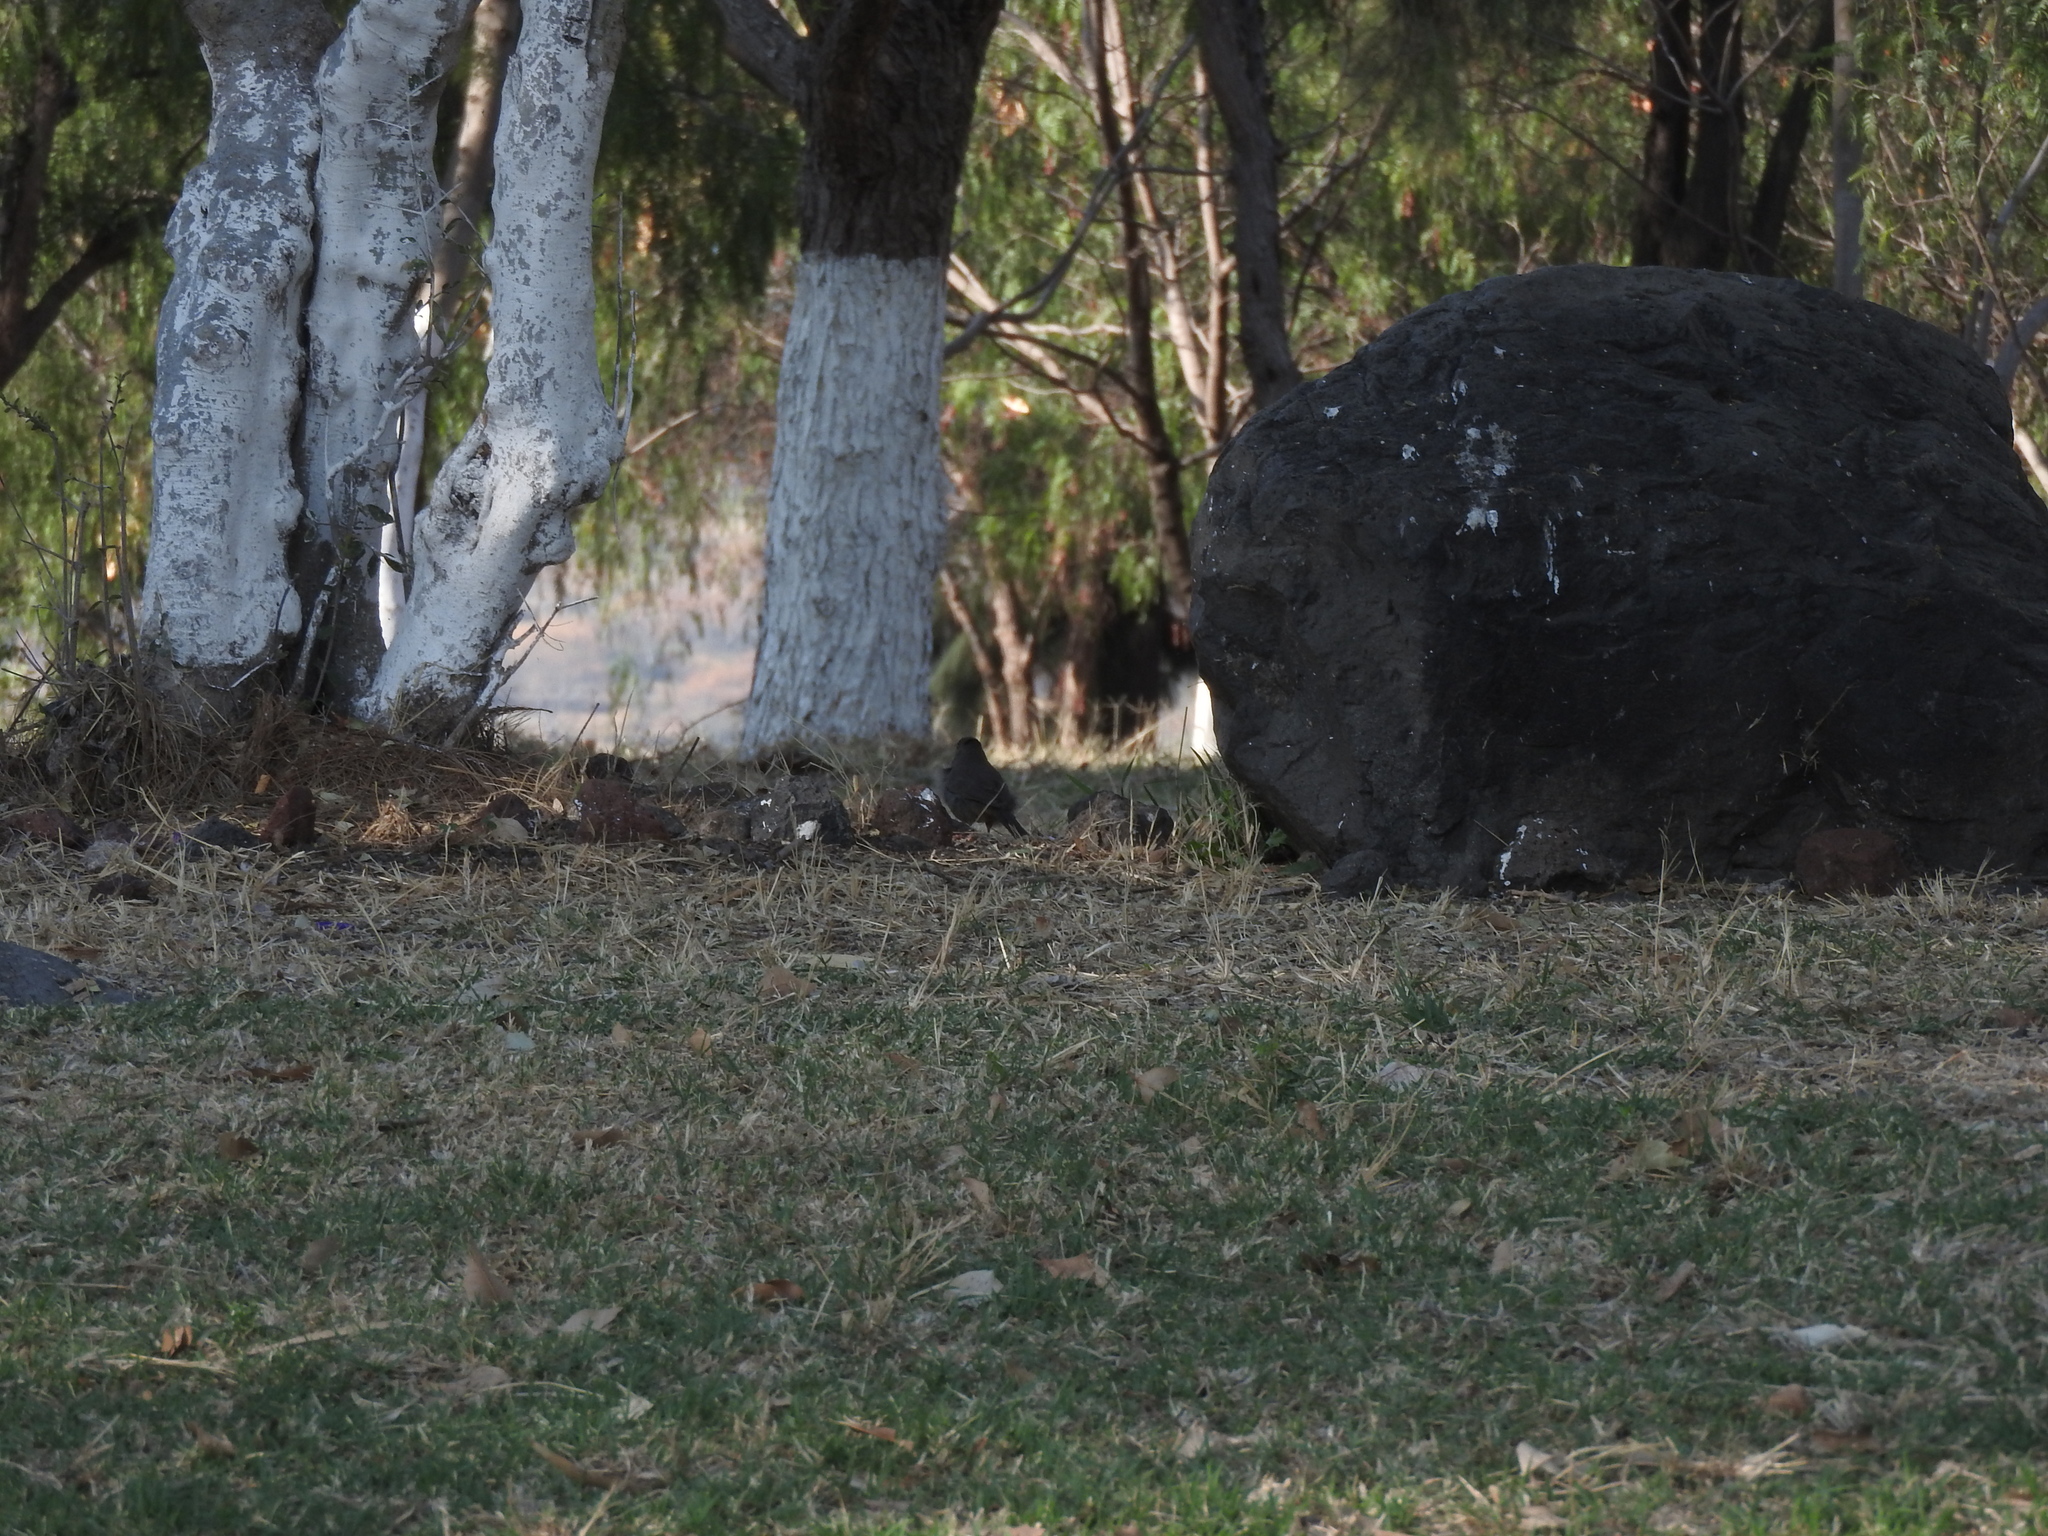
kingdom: Animalia
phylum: Chordata
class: Aves
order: Passeriformes
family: Passerellidae
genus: Melozone
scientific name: Melozone fusca
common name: Canyon towhee
